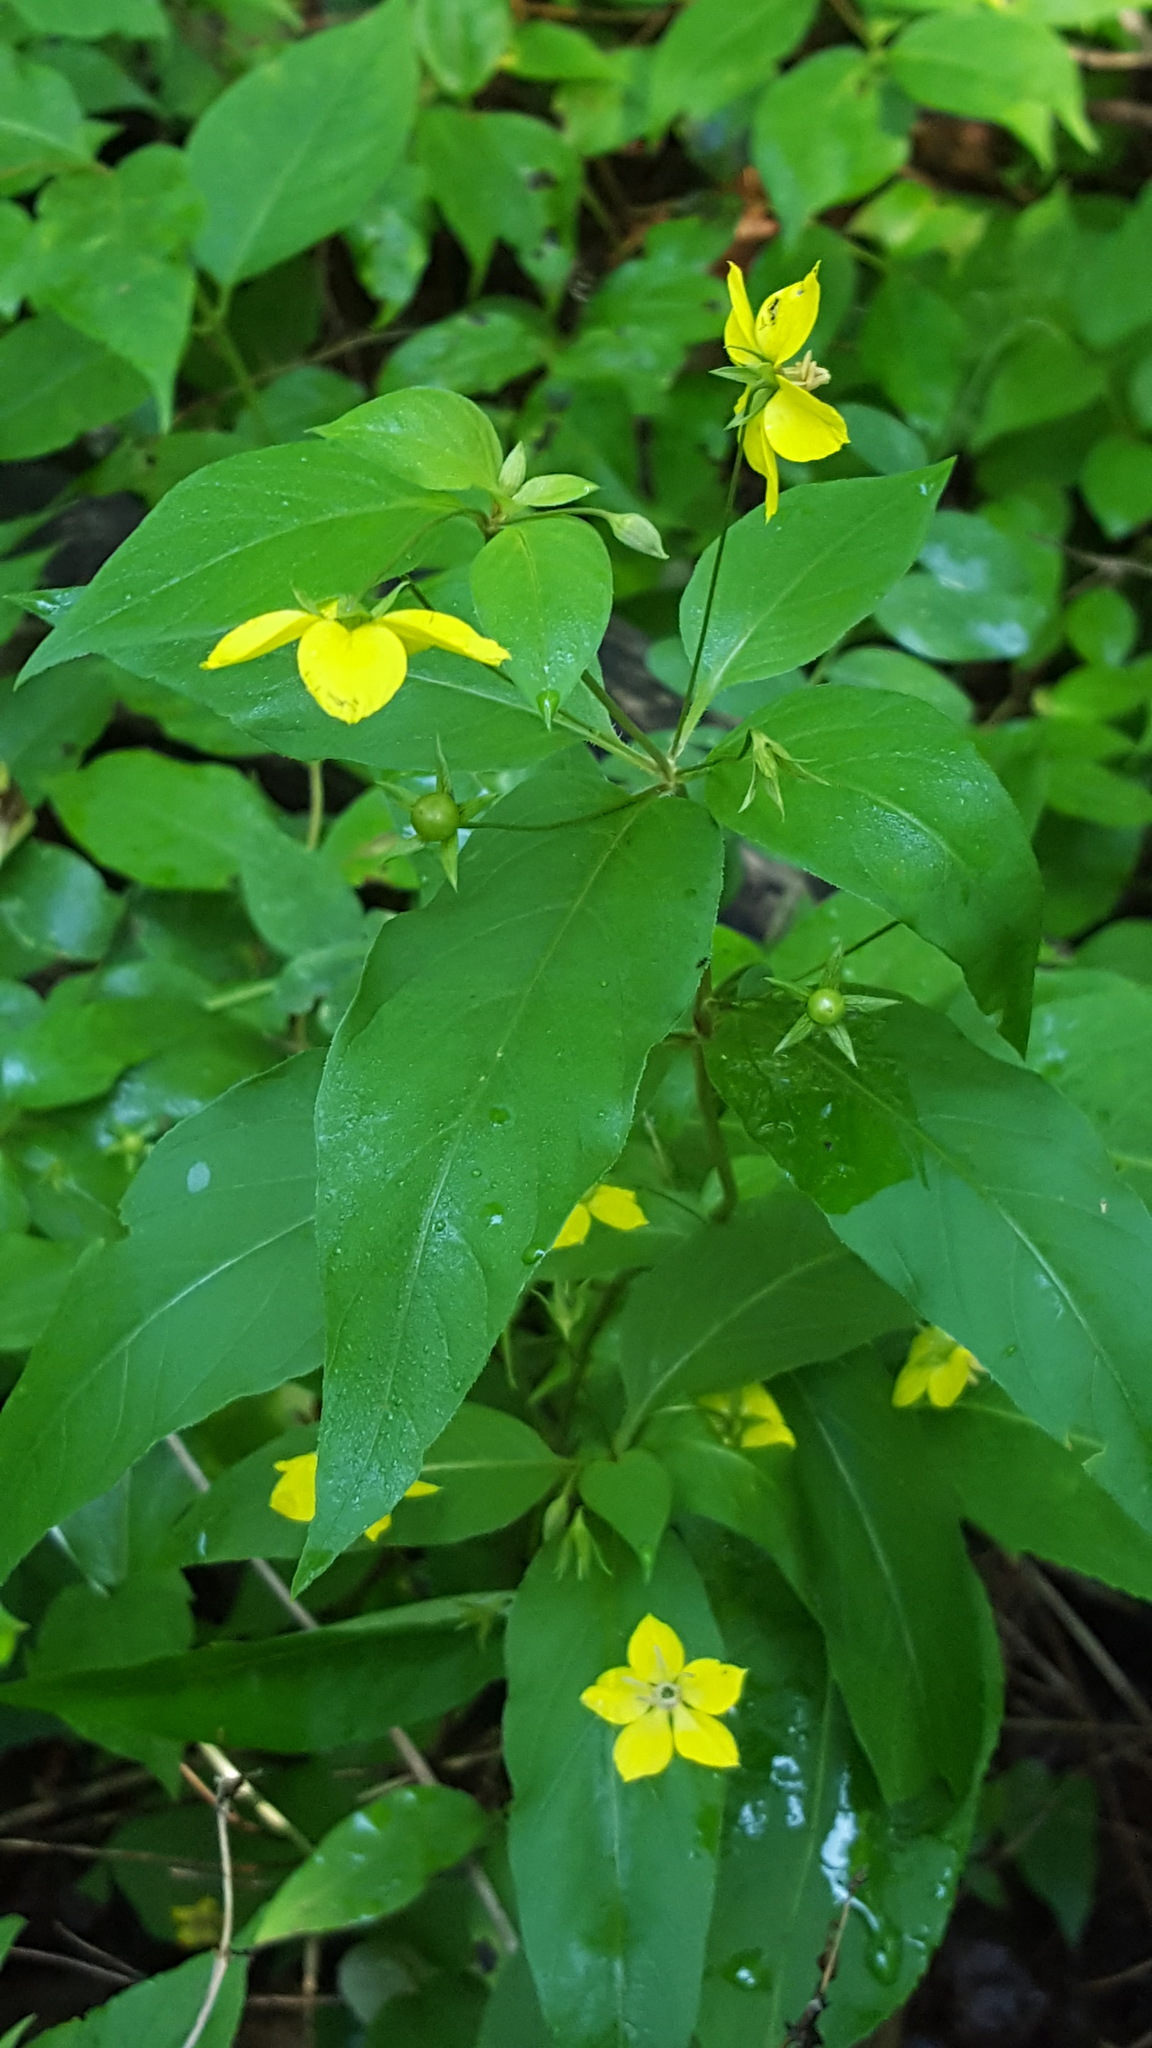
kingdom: Plantae
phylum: Tracheophyta
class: Magnoliopsida
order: Ericales
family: Primulaceae
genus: Lysimachia
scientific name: Lysimachia ciliata
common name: Fringed loosestrife
